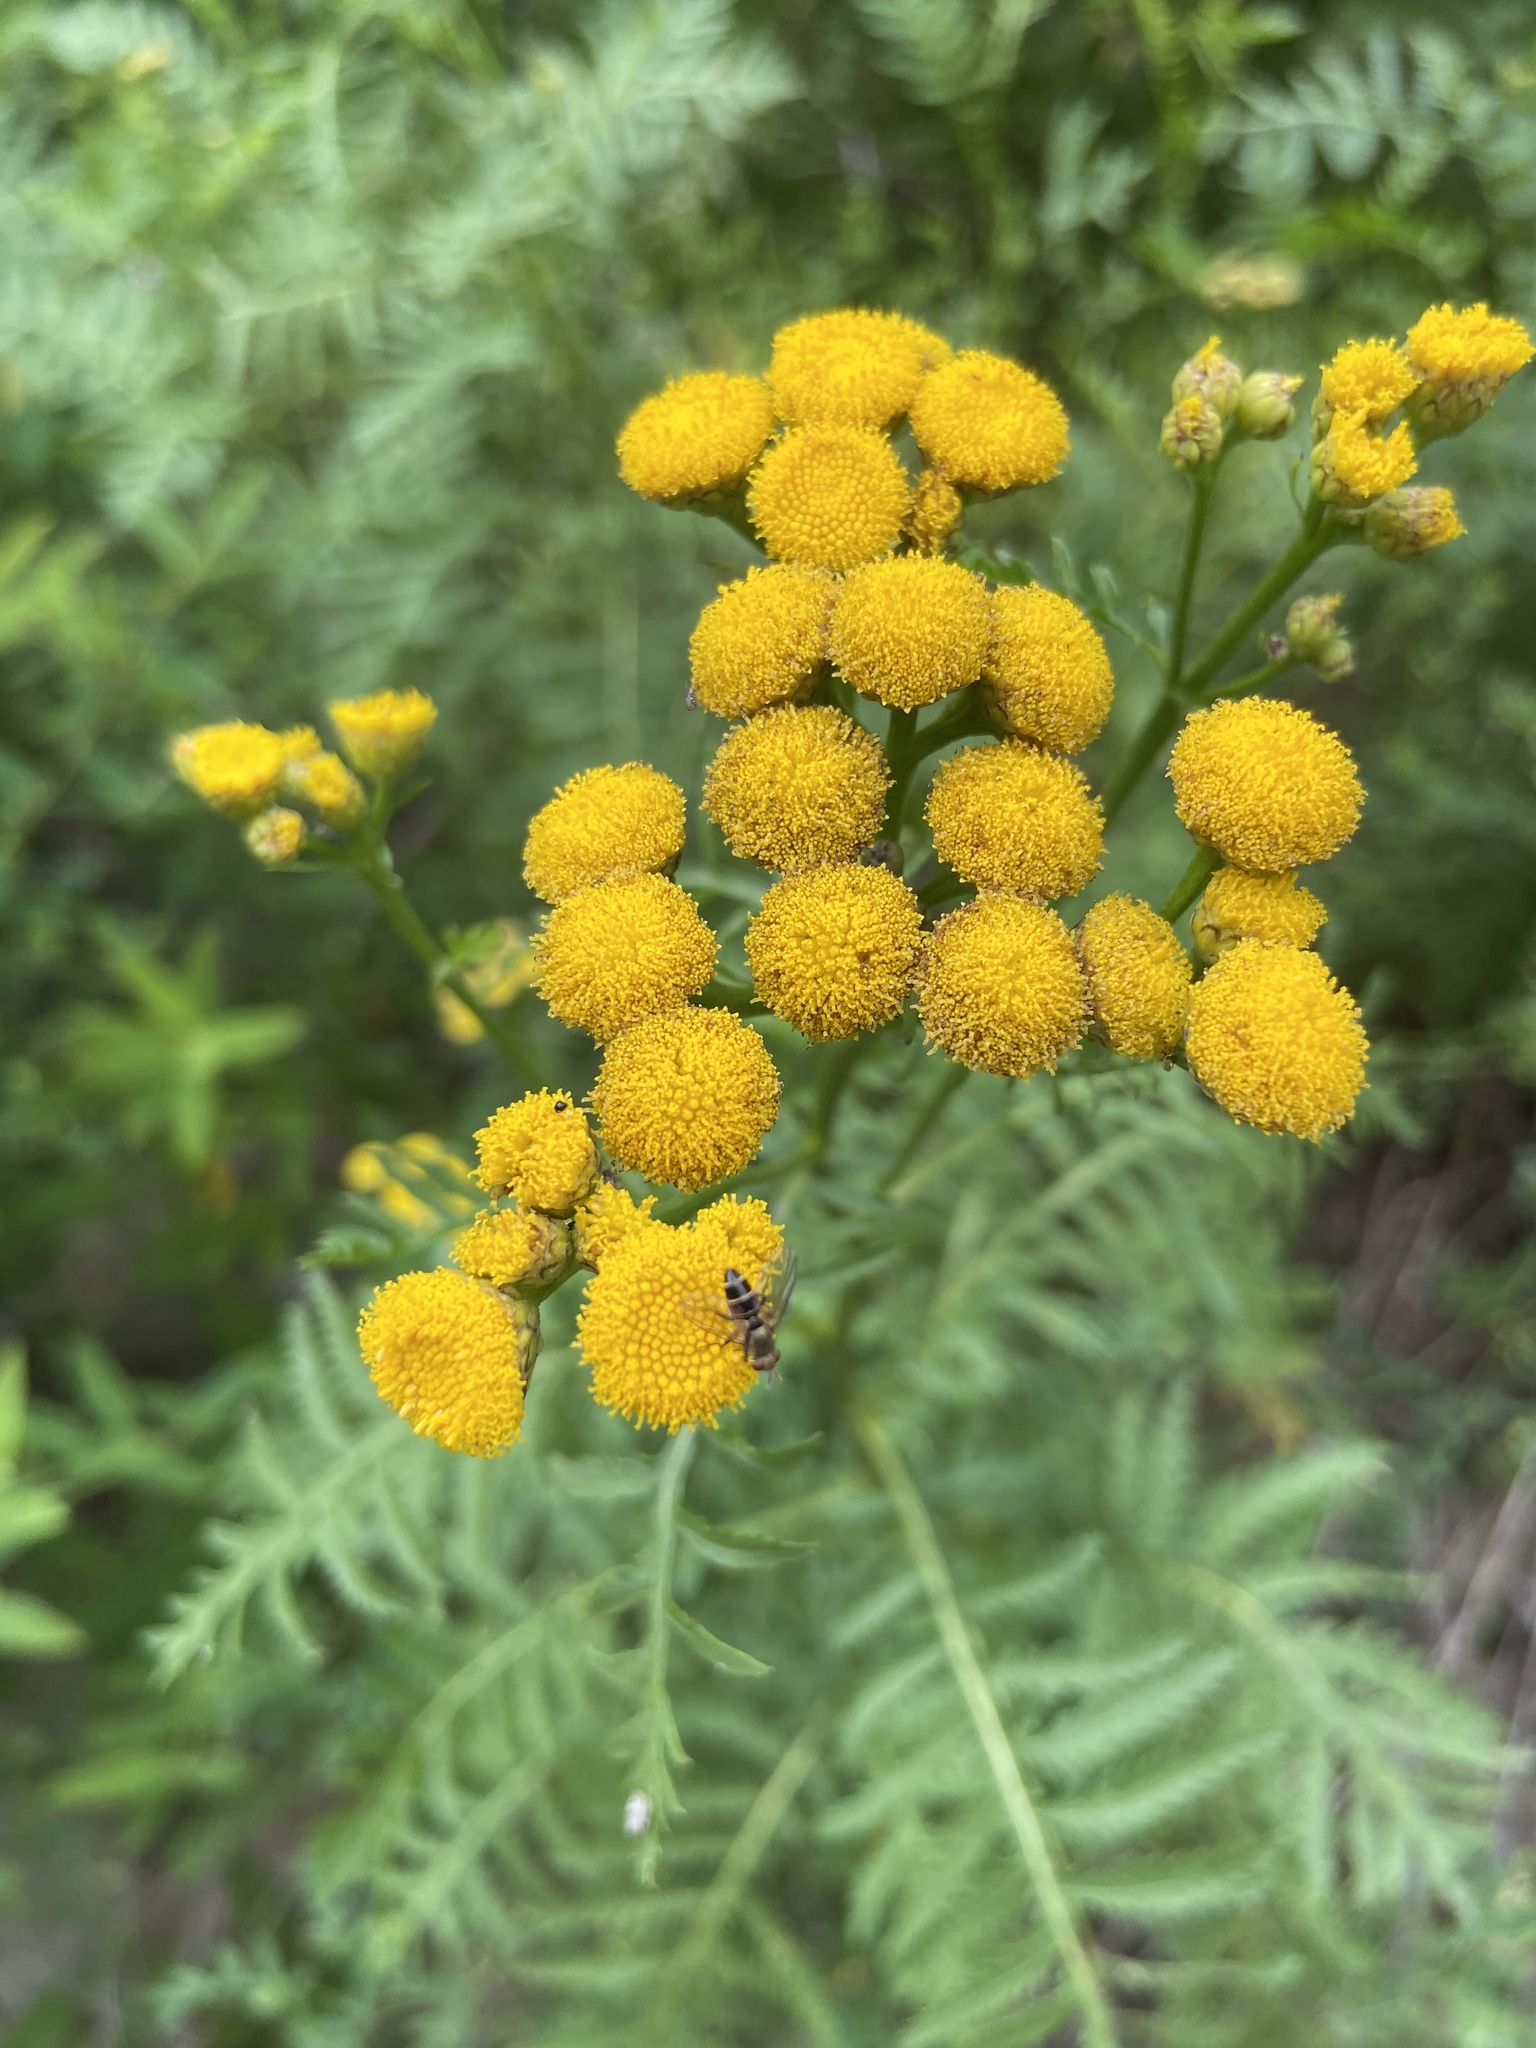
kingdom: Plantae
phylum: Tracheophyta
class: Magnoliopsida
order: Asterales
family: Asteraceae
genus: Tanacetum
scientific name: Tanacetum vulgare
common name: Common tansy
